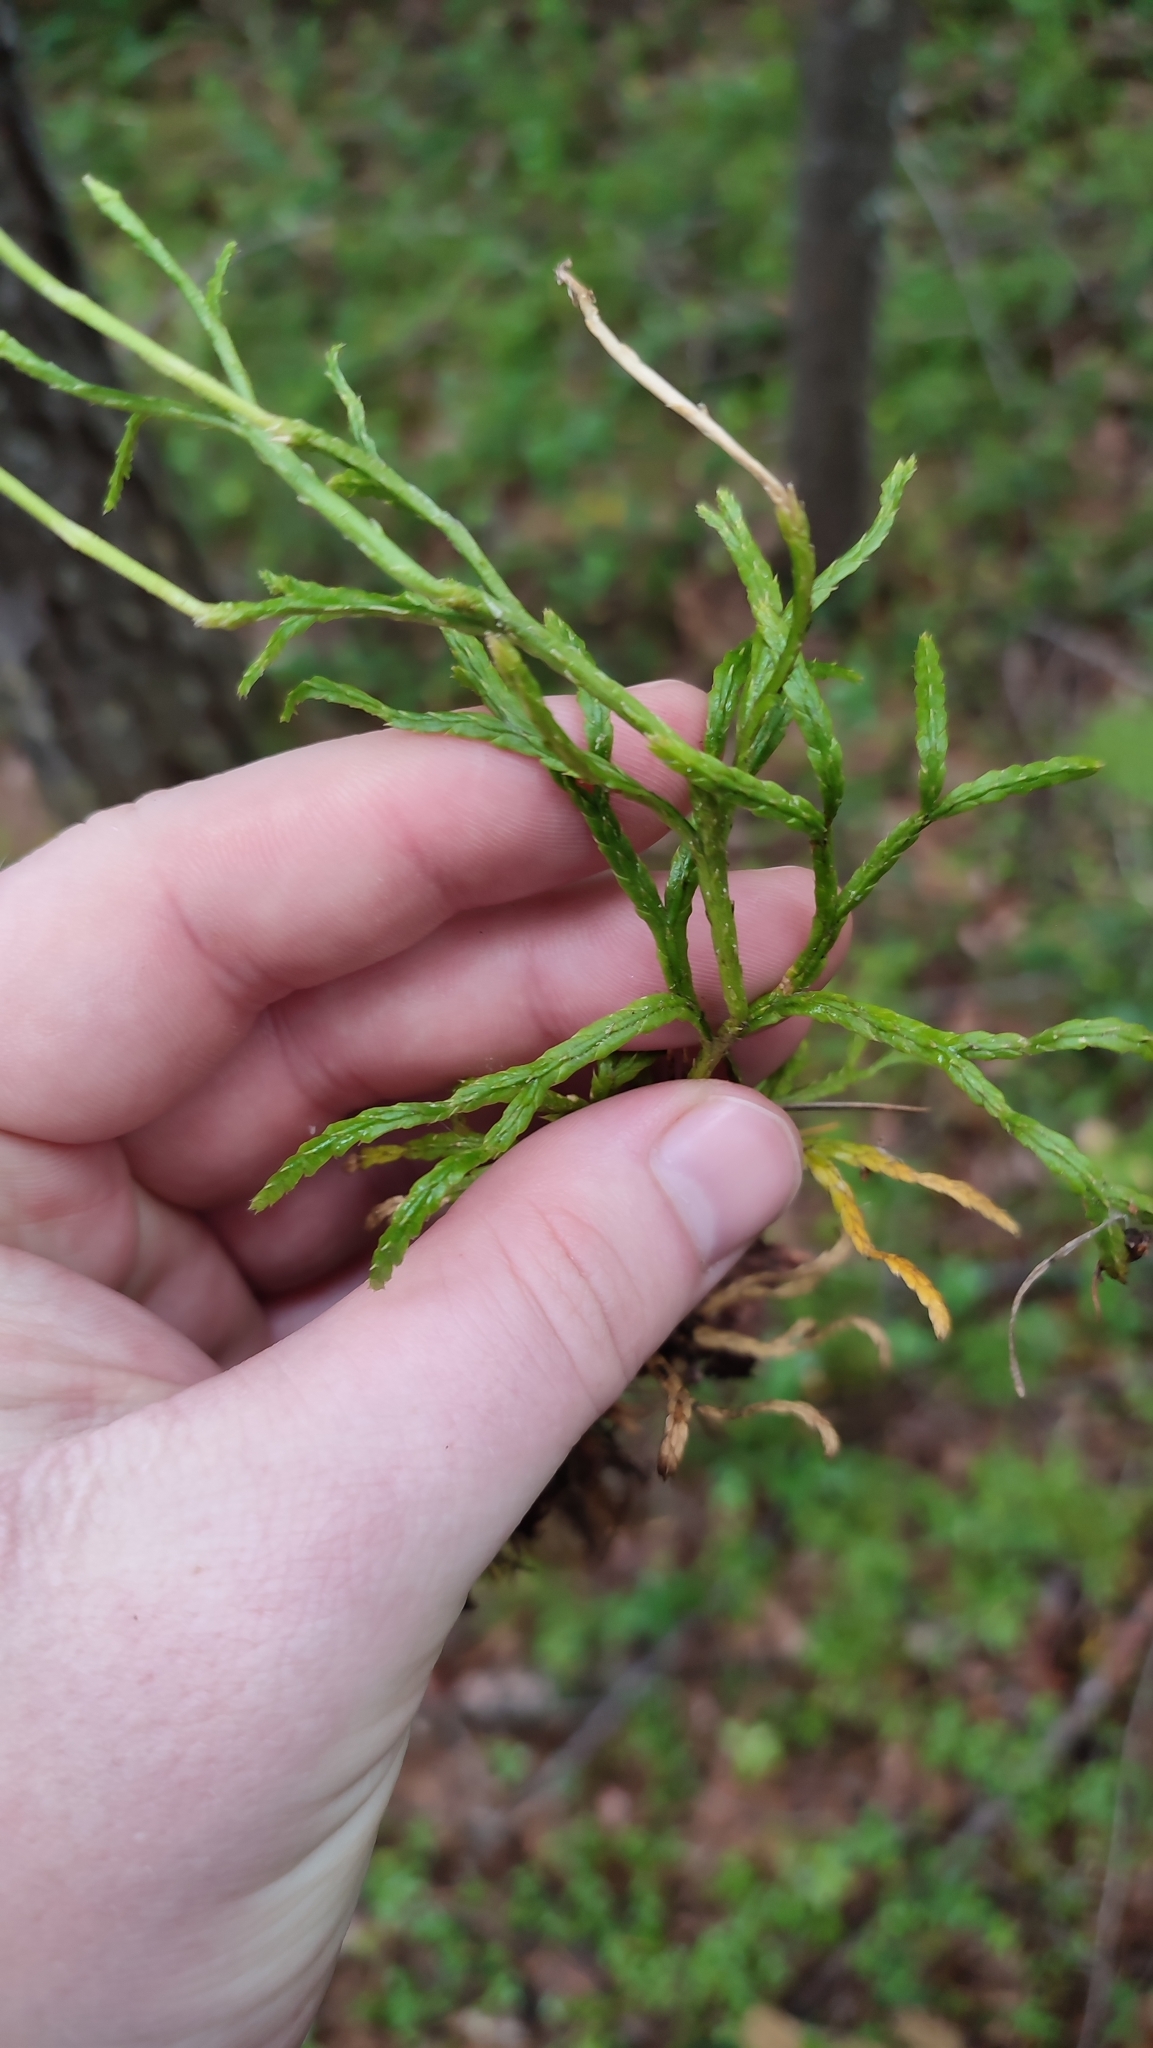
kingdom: Plantae
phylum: Tracheophyta
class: Lycopodiopsida
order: Lycopodiales
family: Lycopodiaceae
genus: Diphasiastrum
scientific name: Diphasiastrum complanatum
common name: Northern running-pine
